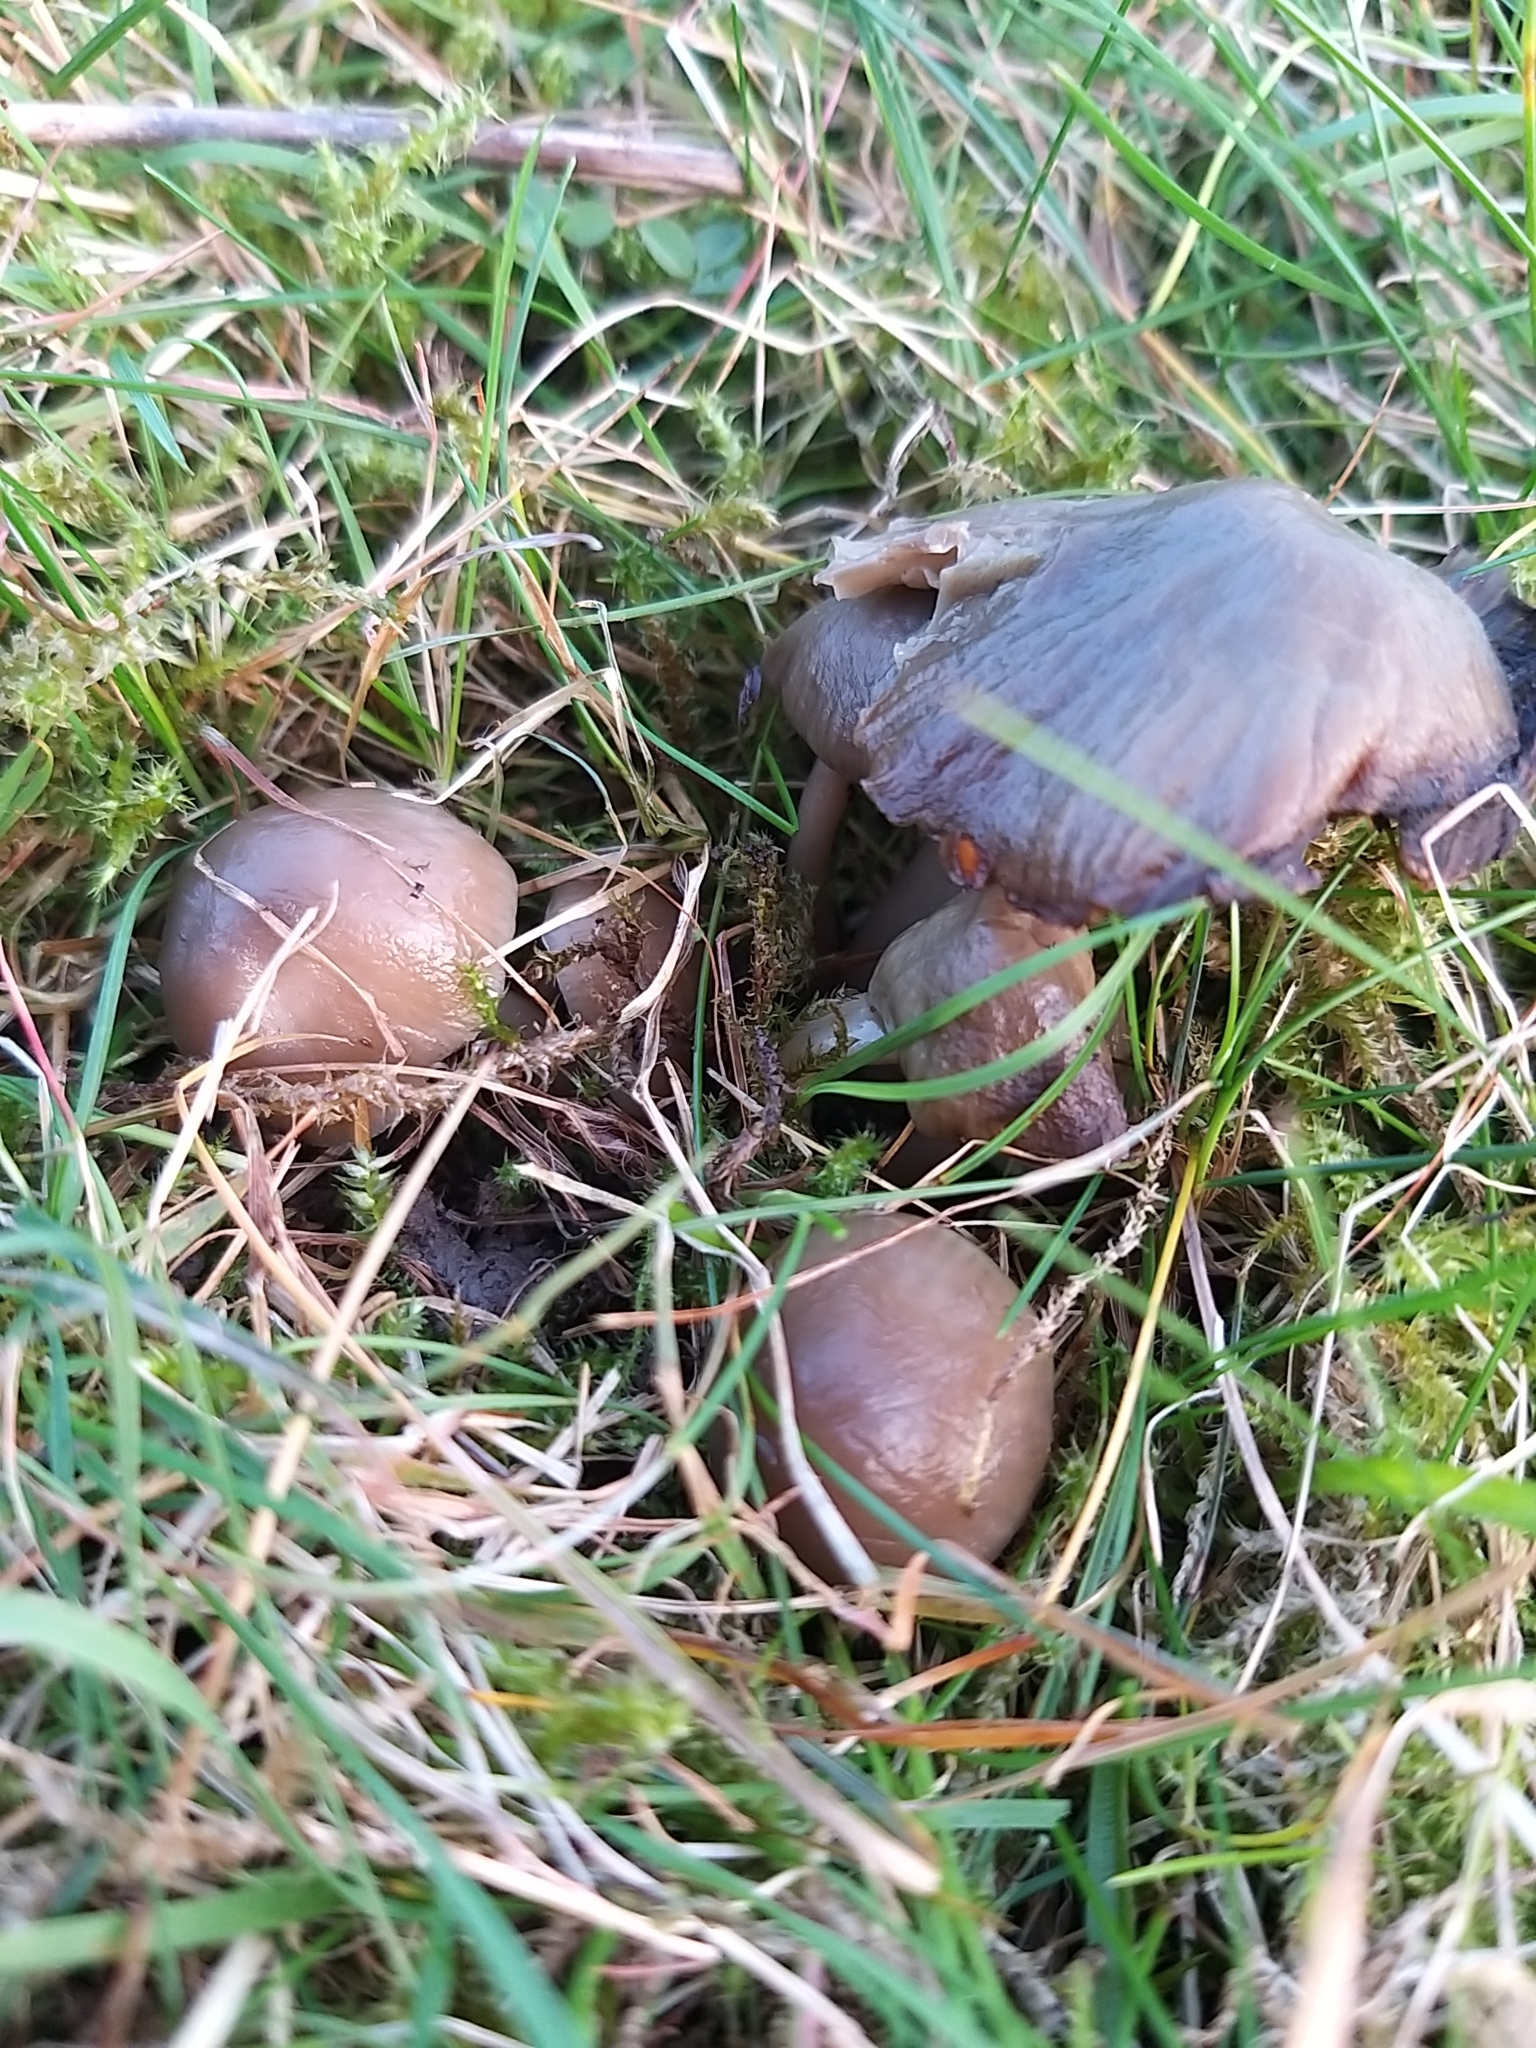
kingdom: Fungi
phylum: Basidiomycota
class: Agaricomycetes
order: Agaricales
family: Hygrophoraceae
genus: Gliophorus
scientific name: Gliophorus irrigatus
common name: Slimy waxcap
